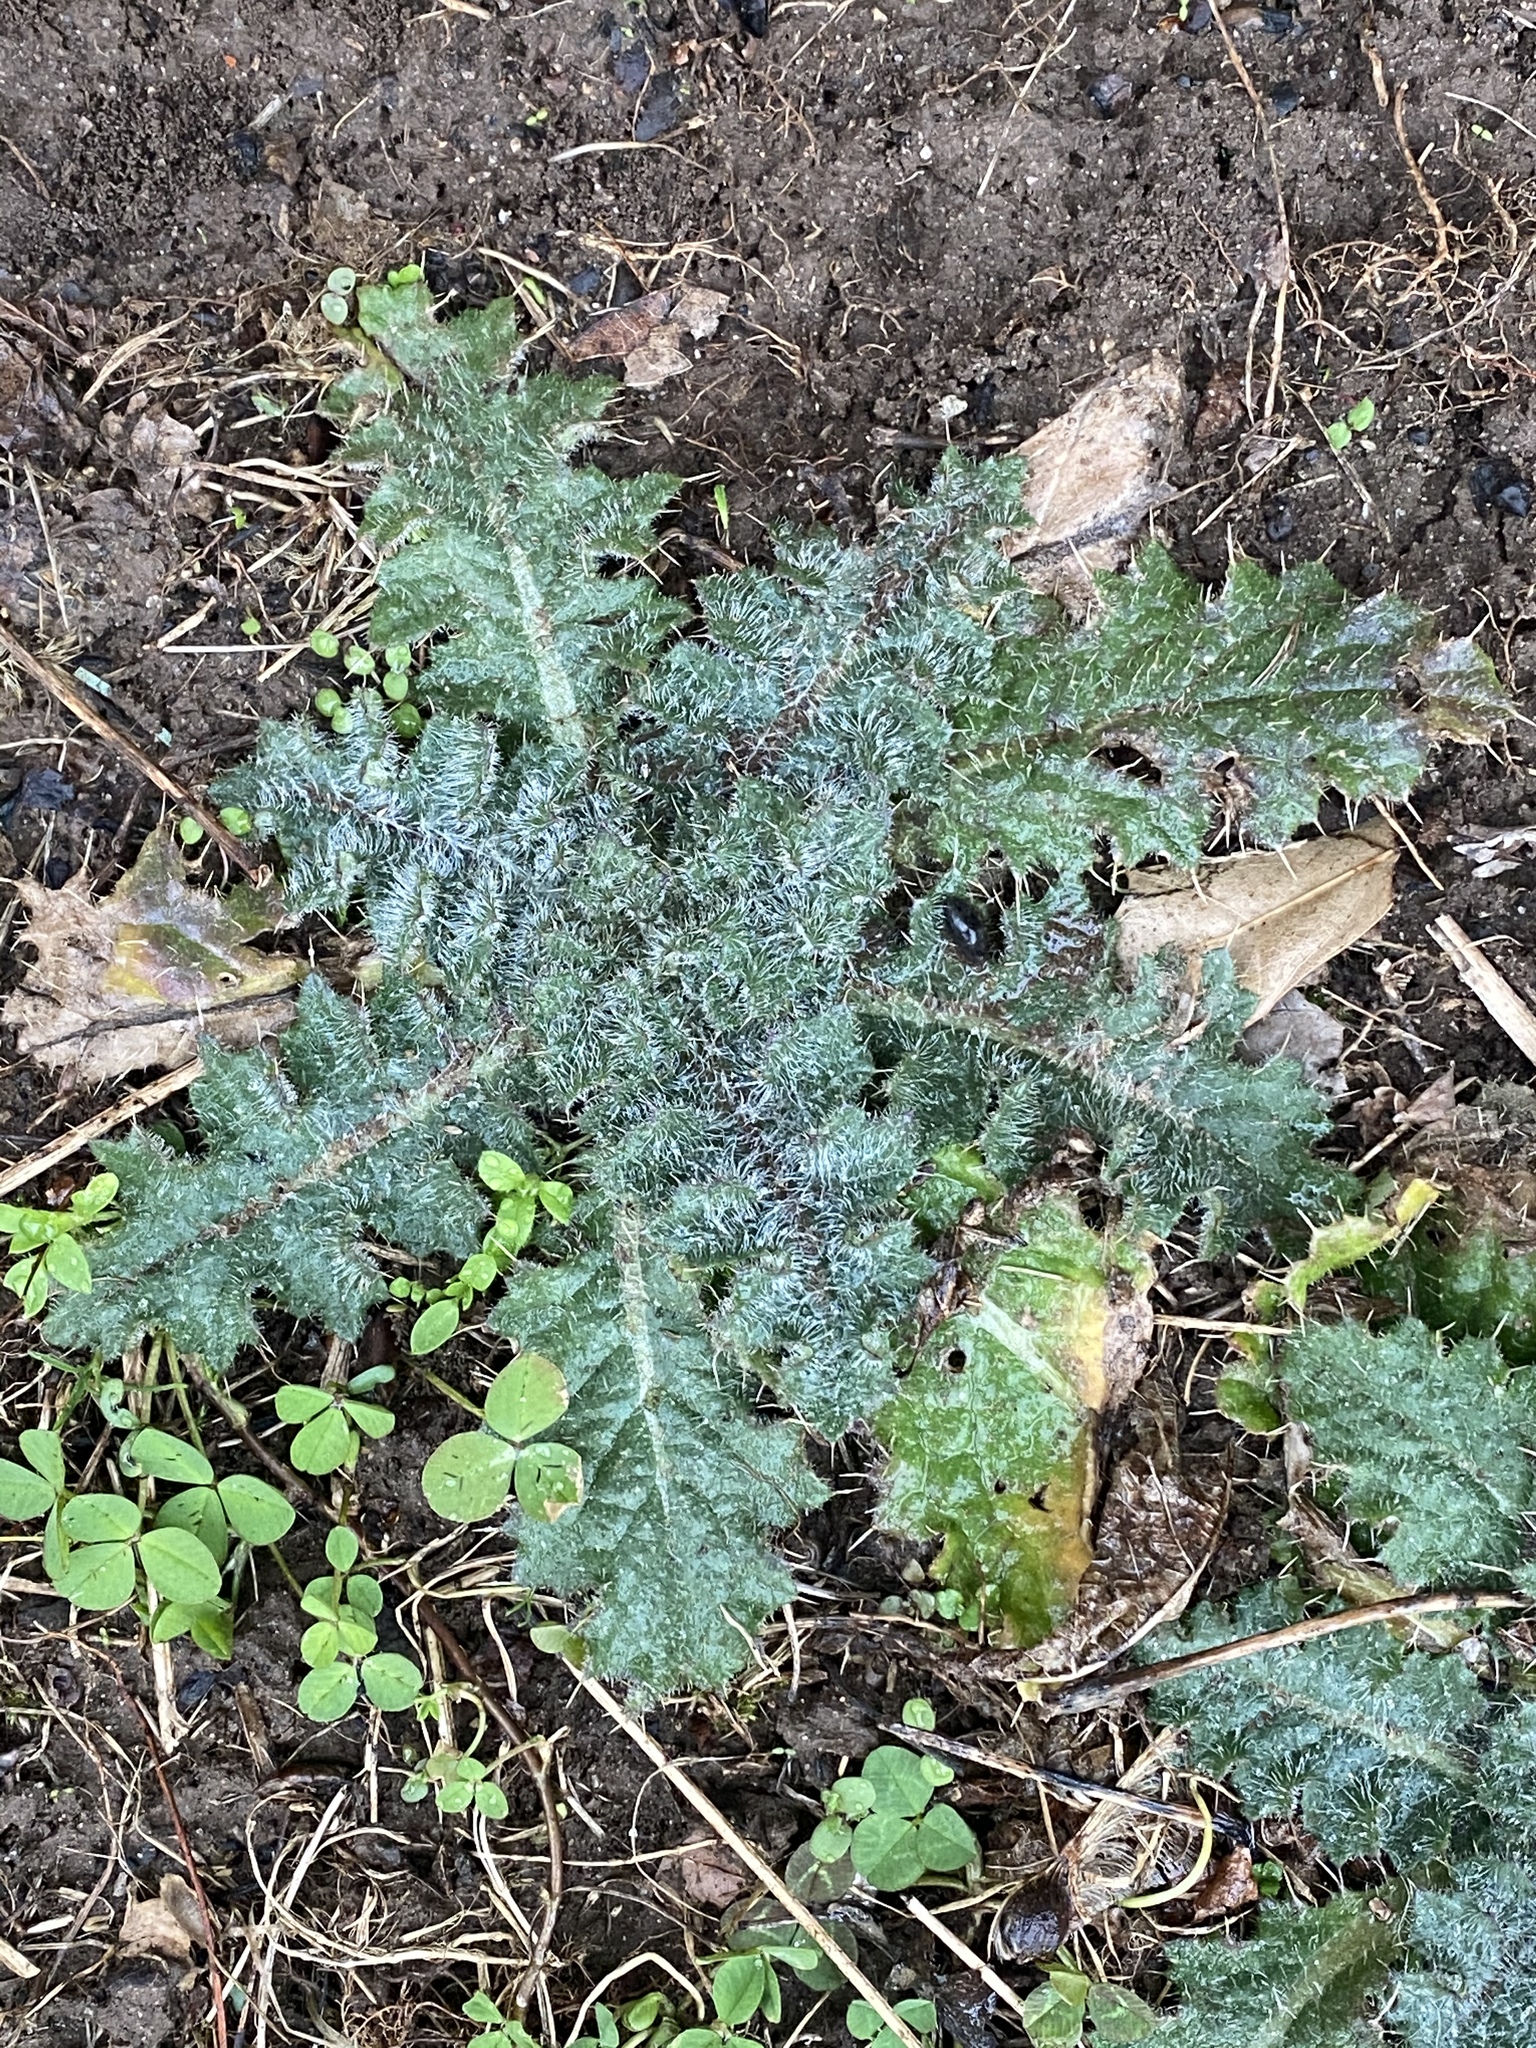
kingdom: Plantae
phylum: Tracheophyta
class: Magnoliopsida
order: Asterales
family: Asteraceae
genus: Cirsium
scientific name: Cirsium vulgare
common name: Bull thistle
